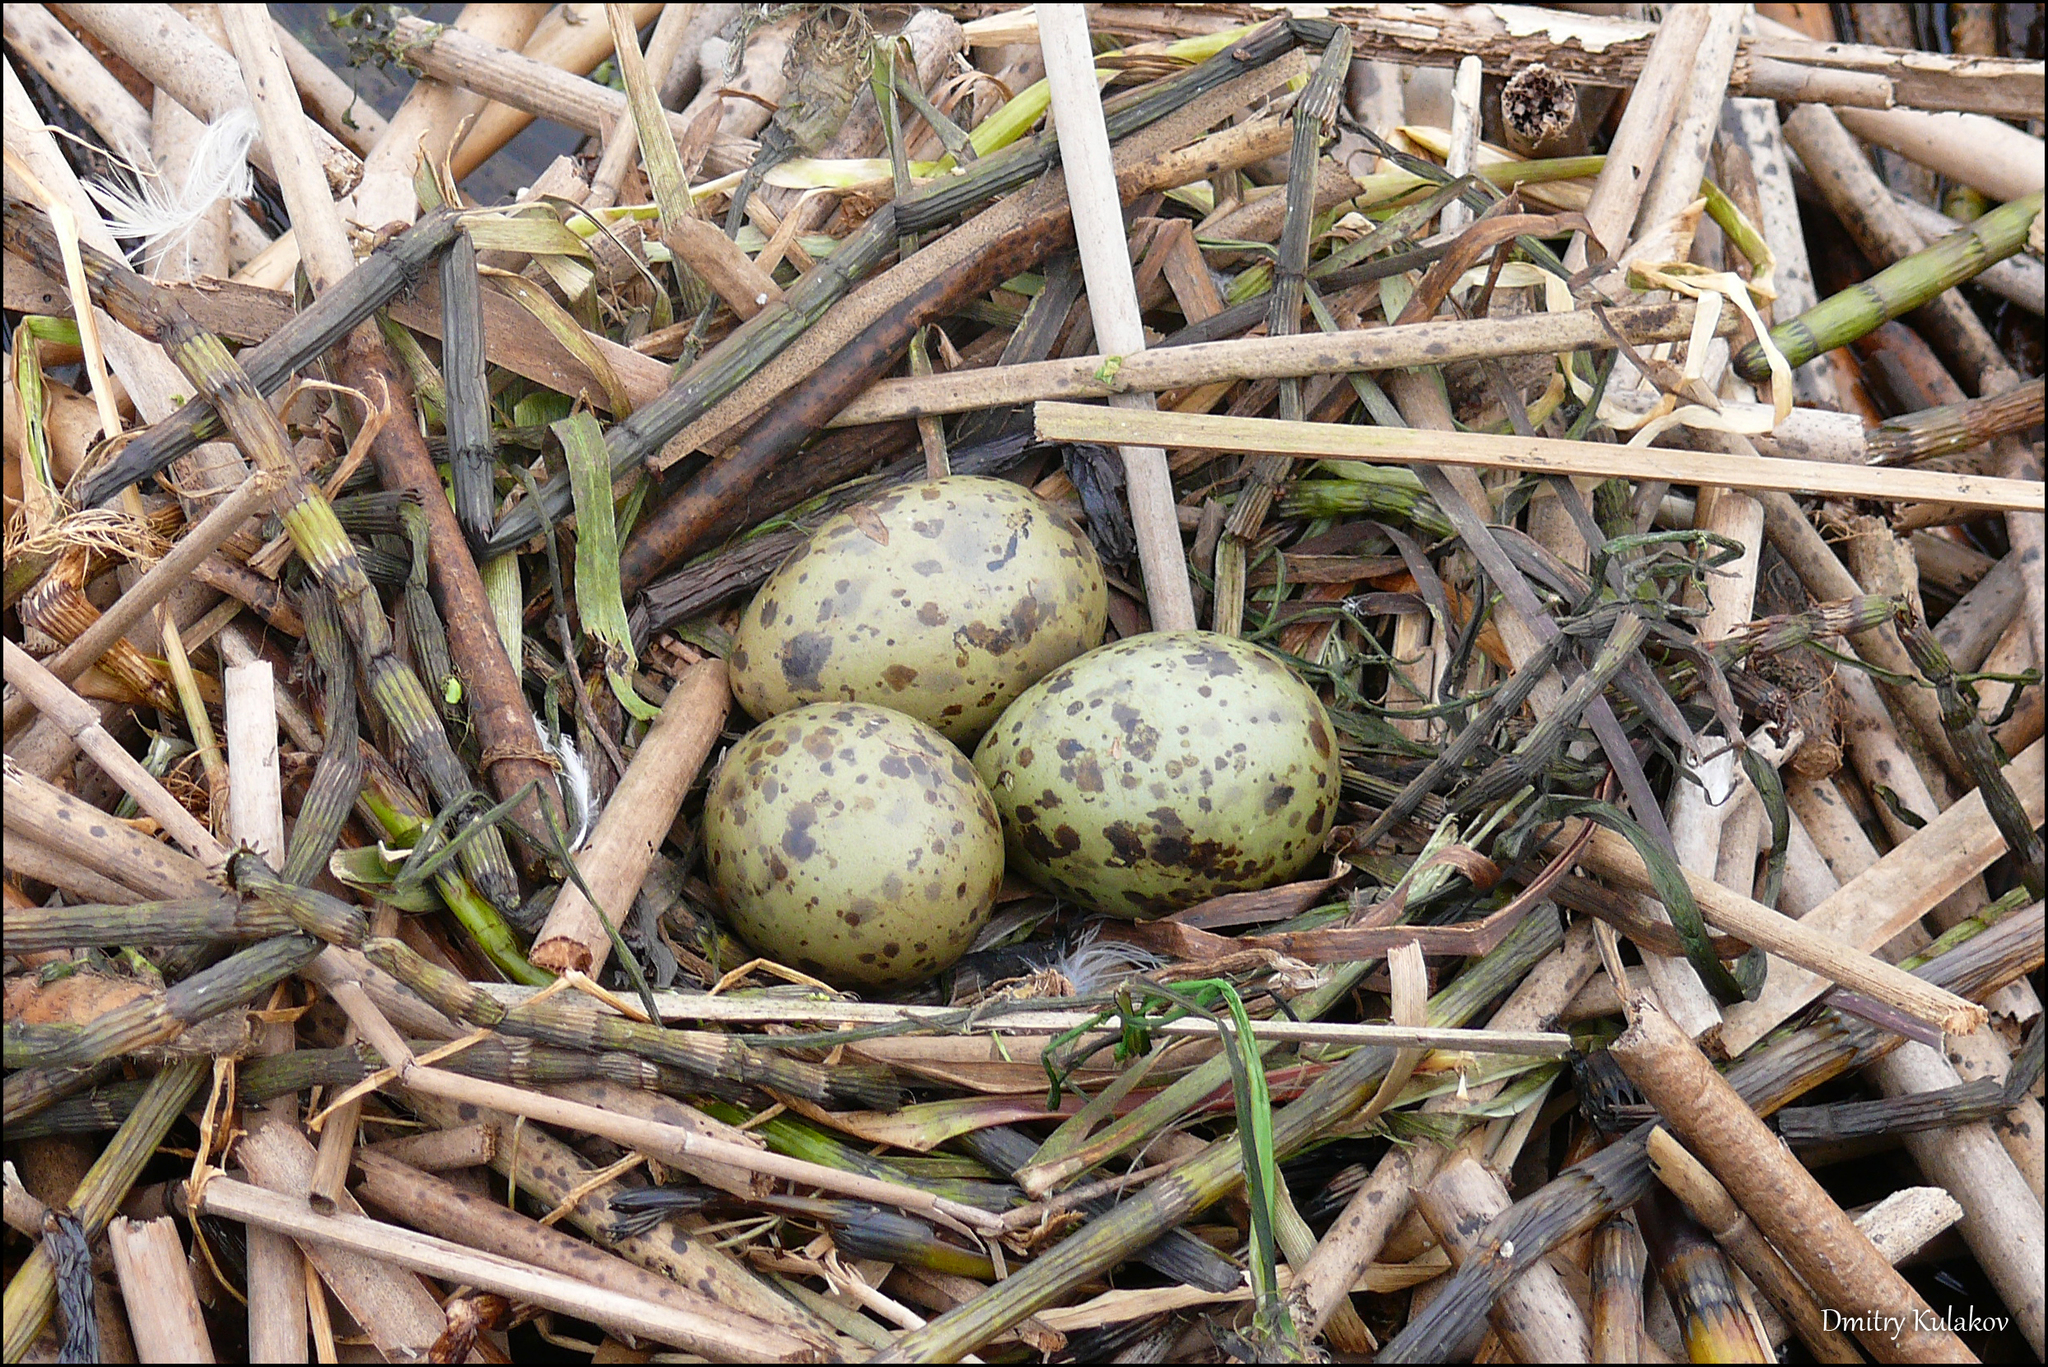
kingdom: Animalia
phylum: Chordata
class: Aves
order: Charadriiformes
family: Laridae
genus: Hydrocoloeus
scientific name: Hydrocoloeus minutus
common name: Little gull
